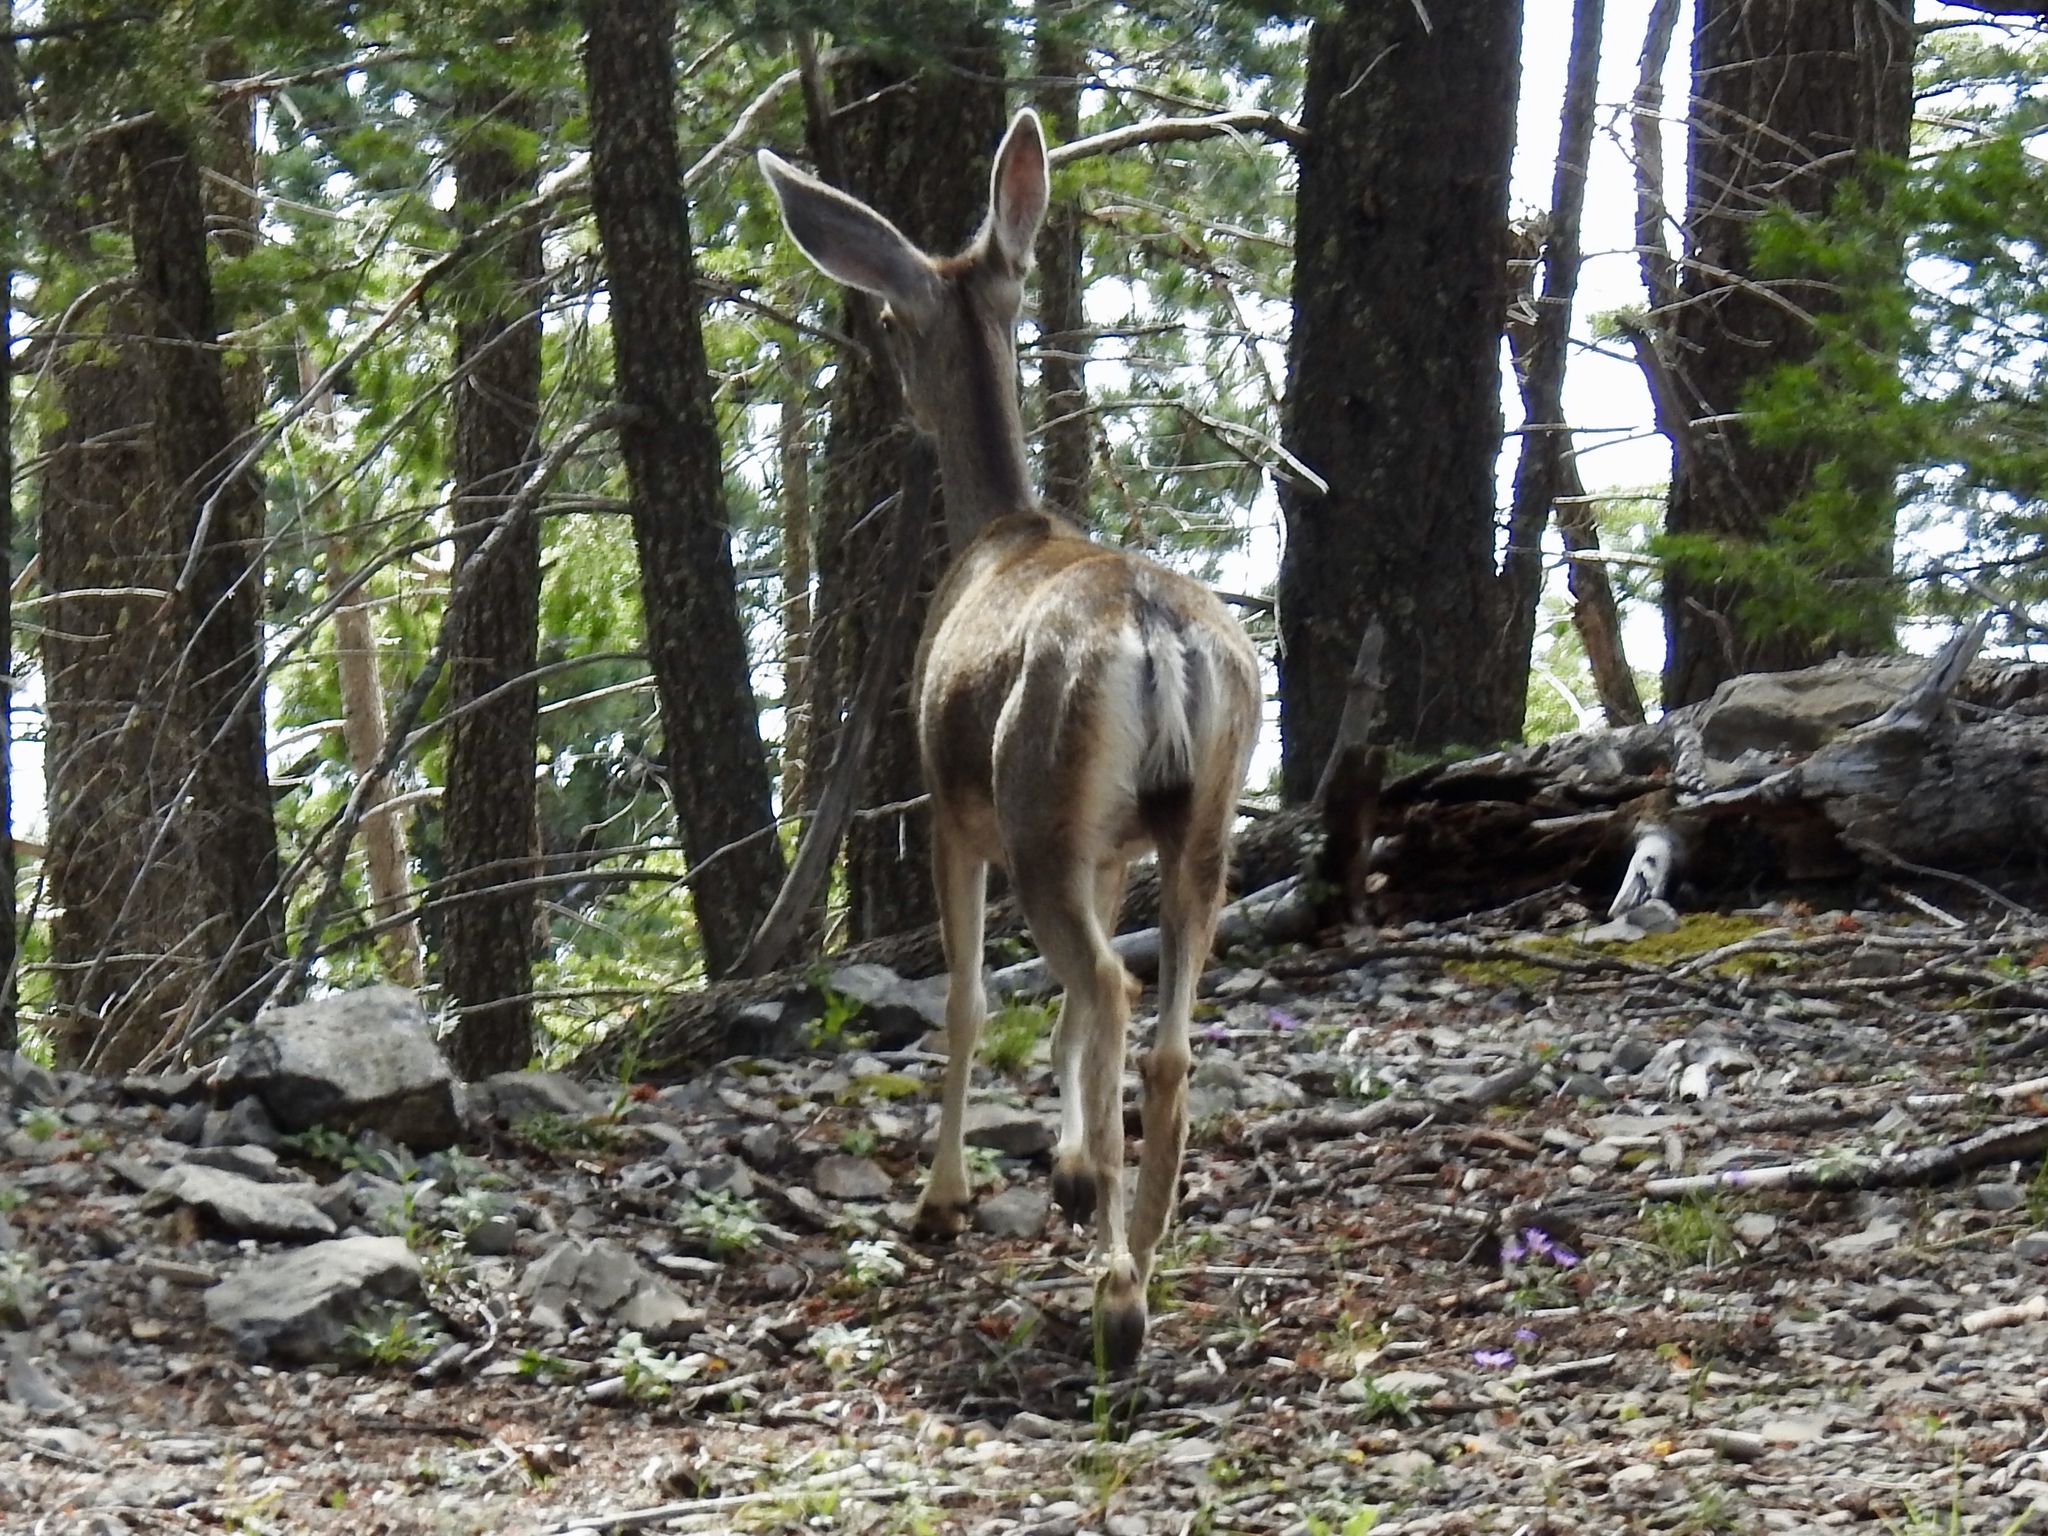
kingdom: Animalia
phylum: Chordata
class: Mammalia
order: Artiodactyla
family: Cervidae
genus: Odocoileus
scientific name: Odocoileus hemionus
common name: Mule deer
